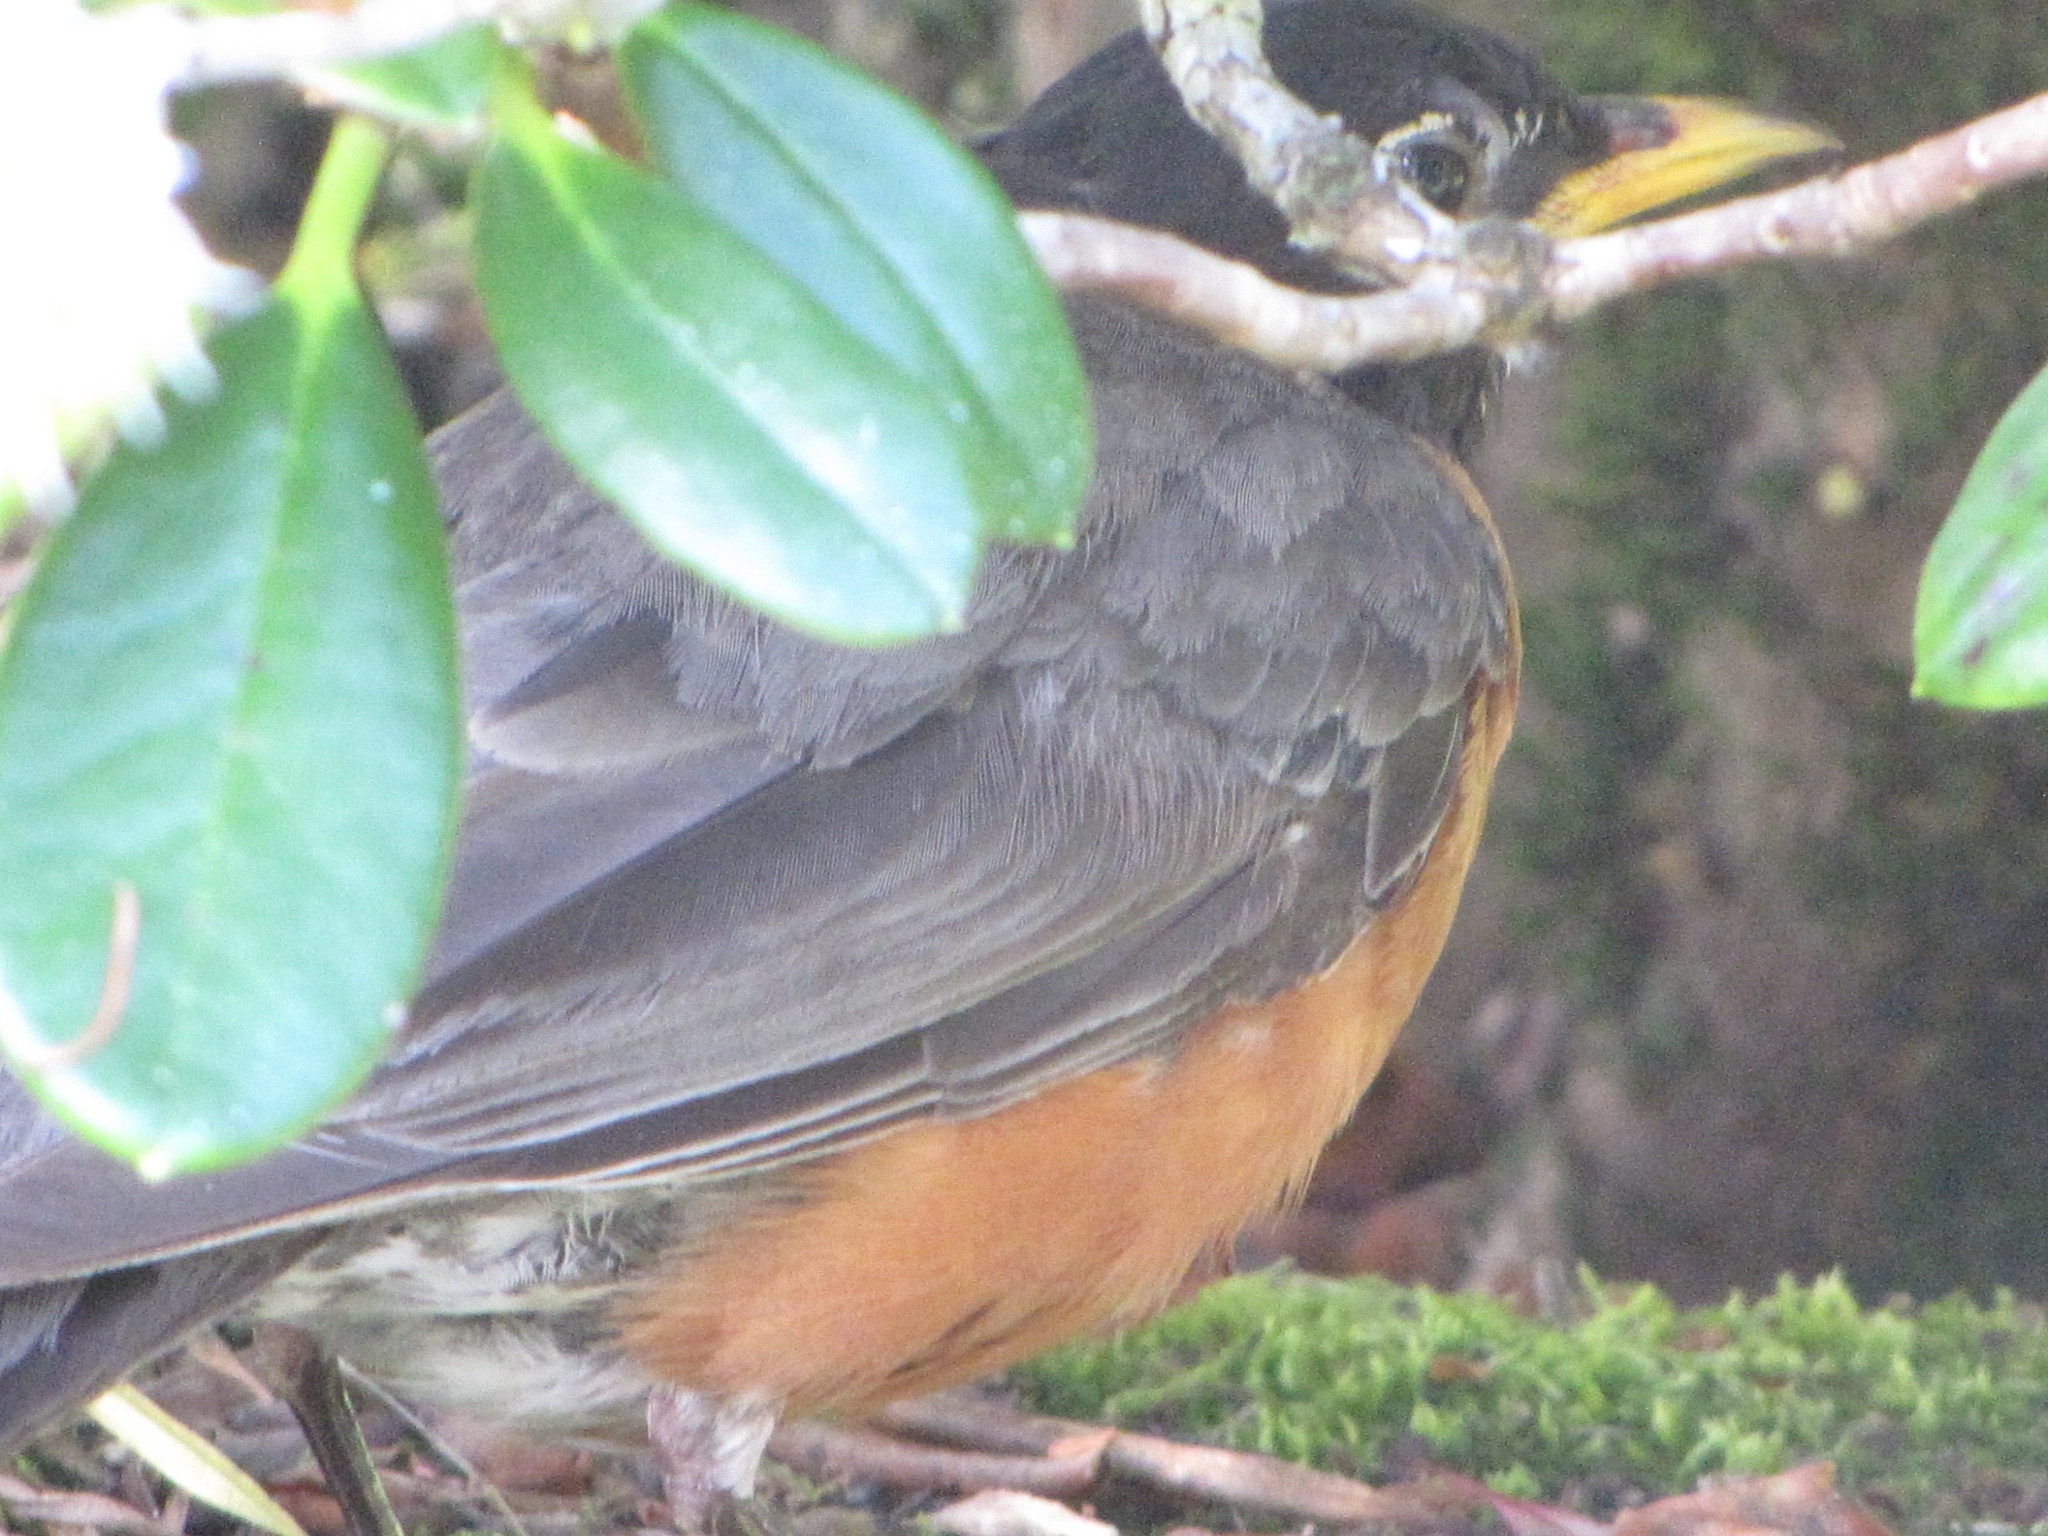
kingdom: Animalia
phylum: Chordata
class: Aves
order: Passeriformes
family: Turdidae
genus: Turdus
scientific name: Turdus migratorius
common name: American robin
